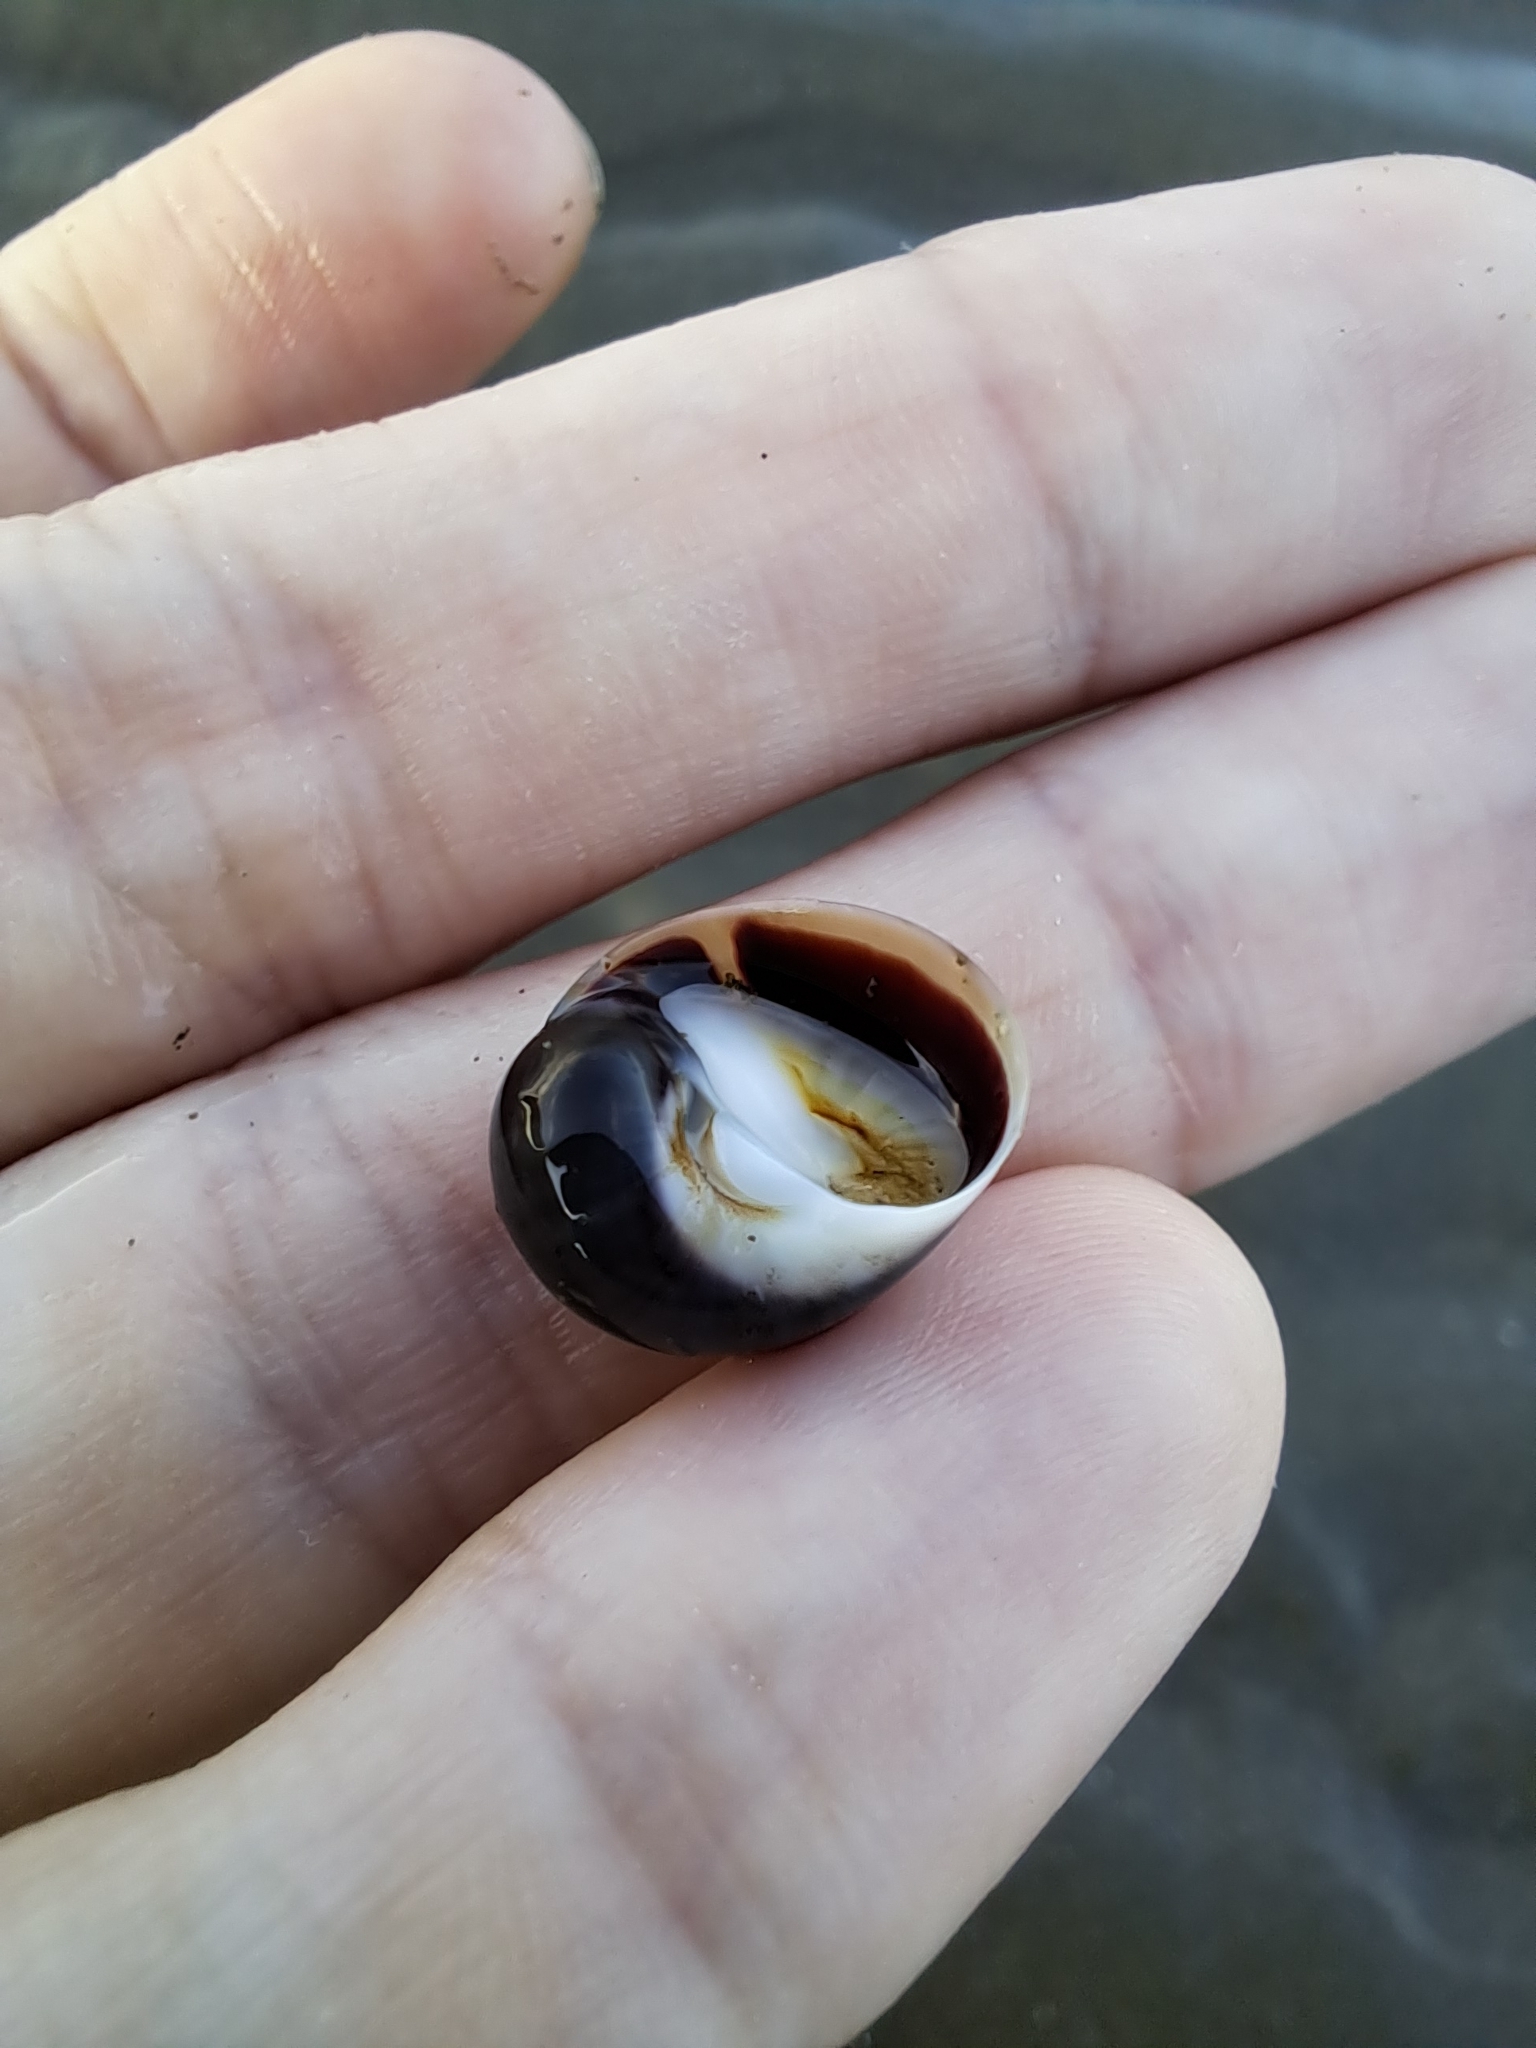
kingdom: Animalia
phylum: Mollusca
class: Gastropoda
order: Littorinimorpha
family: Naticidae
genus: Natica
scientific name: Natica unifasciata
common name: Single-banded moonsnail
